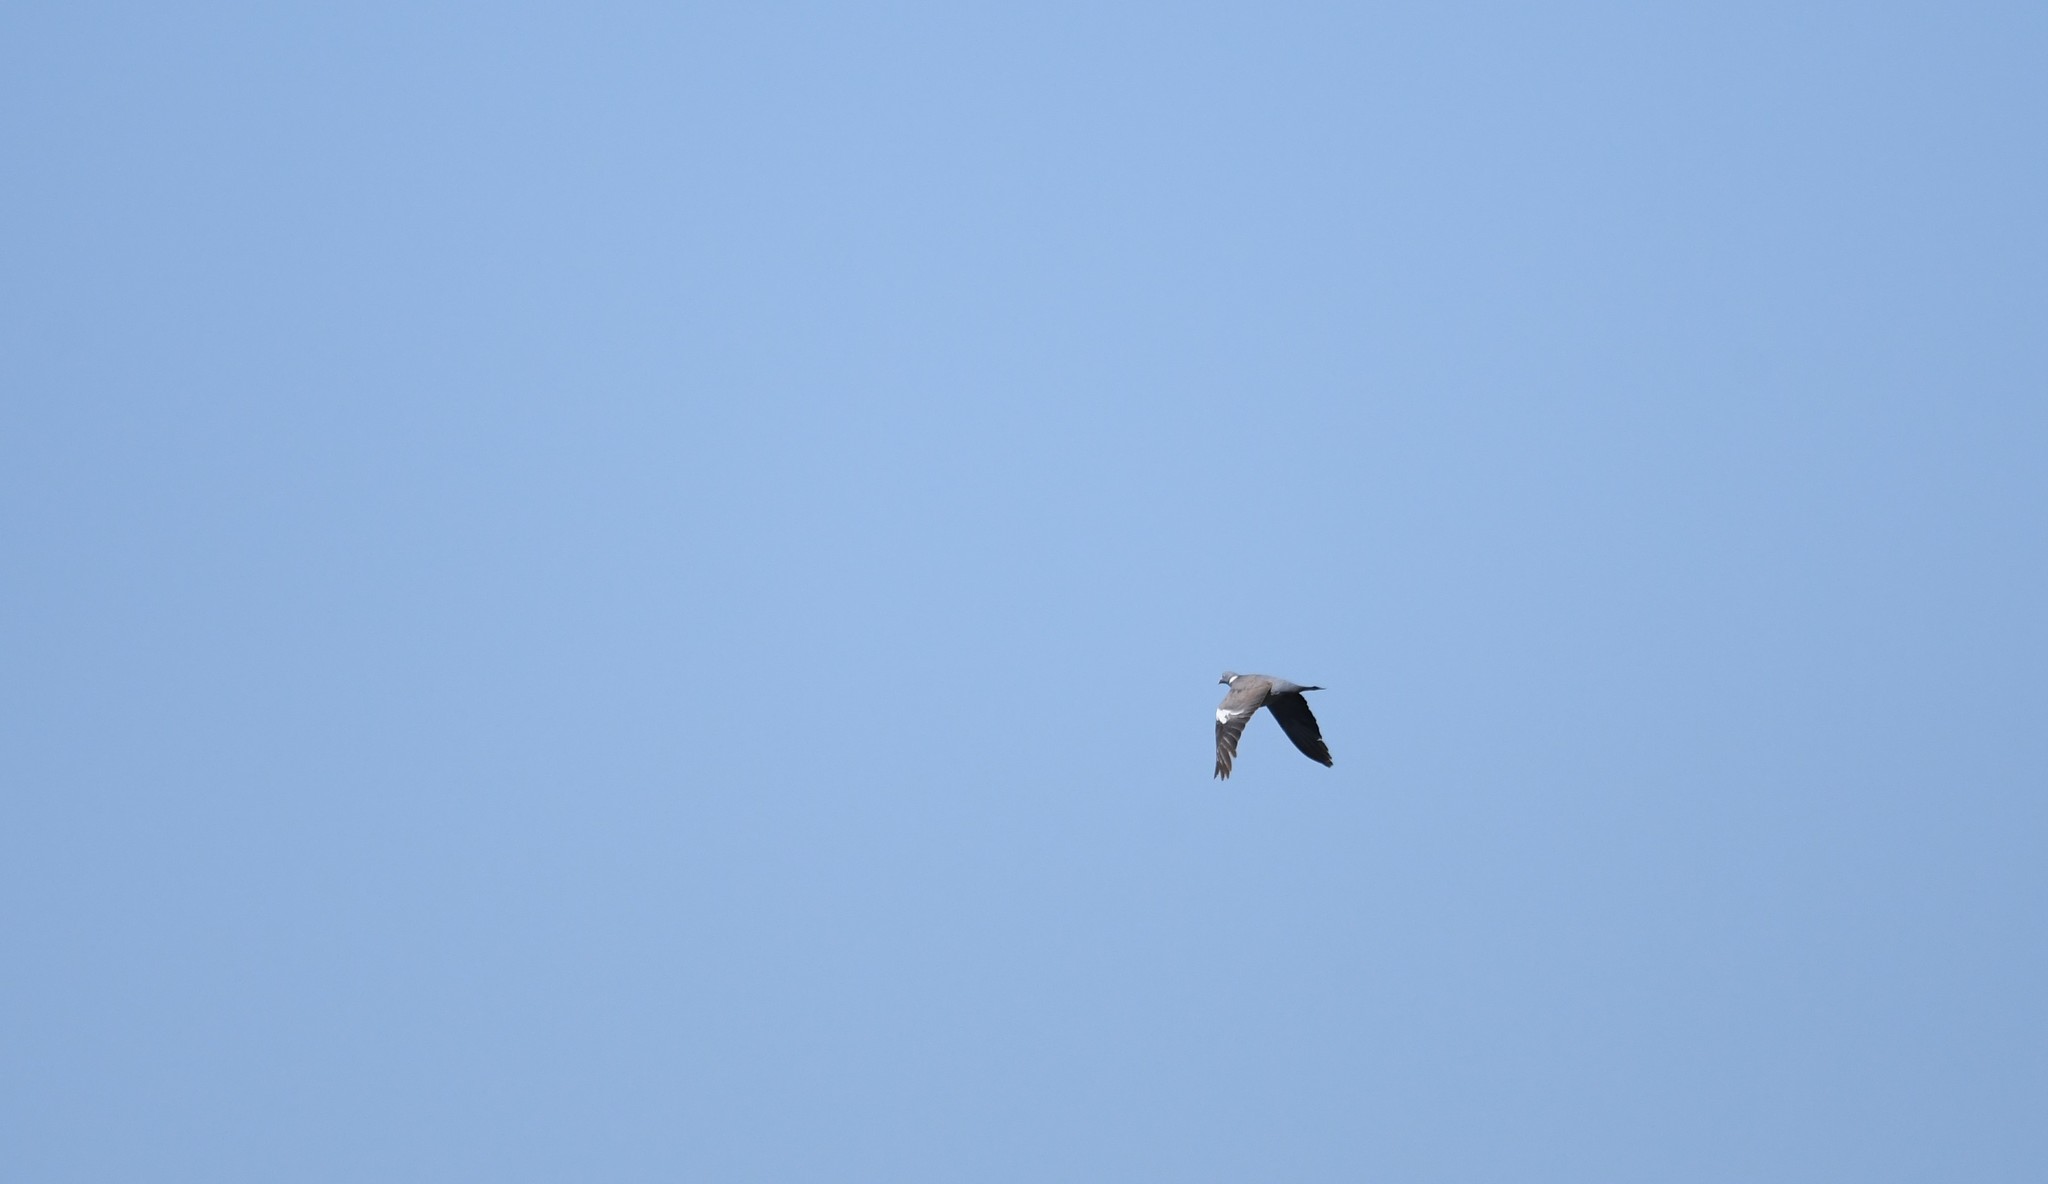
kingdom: Animalia
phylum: Chordata
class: Aves
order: Columbiformes
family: Columbidae
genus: Columba
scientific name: Columba palumbus
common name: Common wood pigeon
